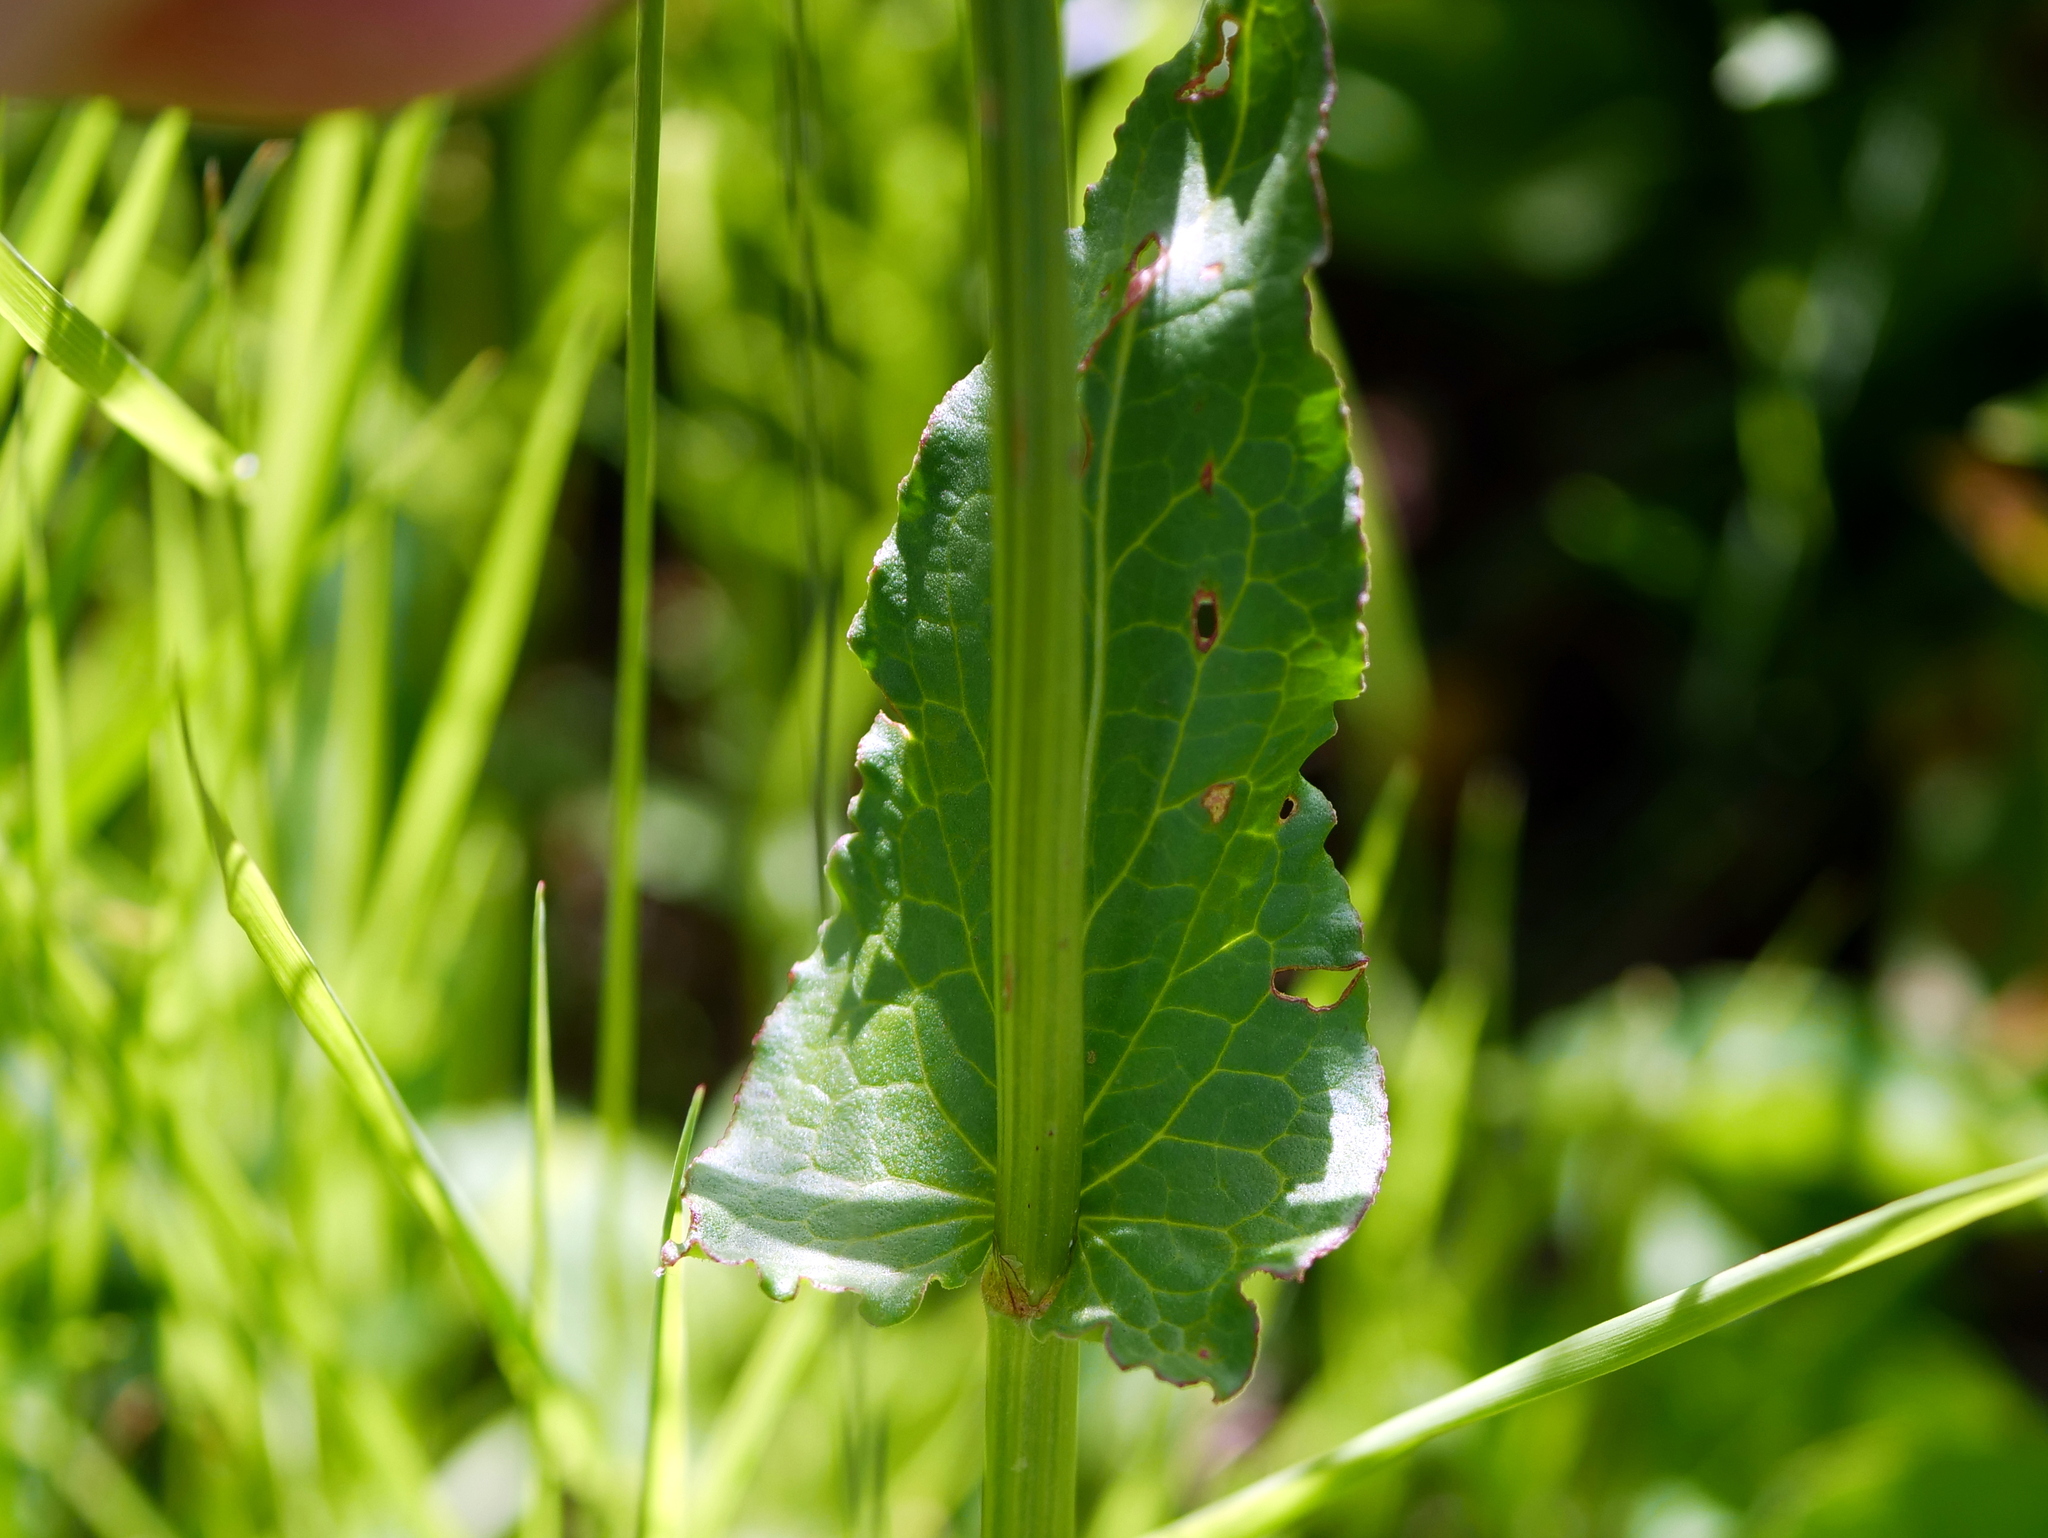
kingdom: Plantae
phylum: Tracheophyta
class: Magnoliopsida
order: Caryophyllales
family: Polygonaceae
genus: Rumex
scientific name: Rumex acetosa
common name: Garden sorrel
